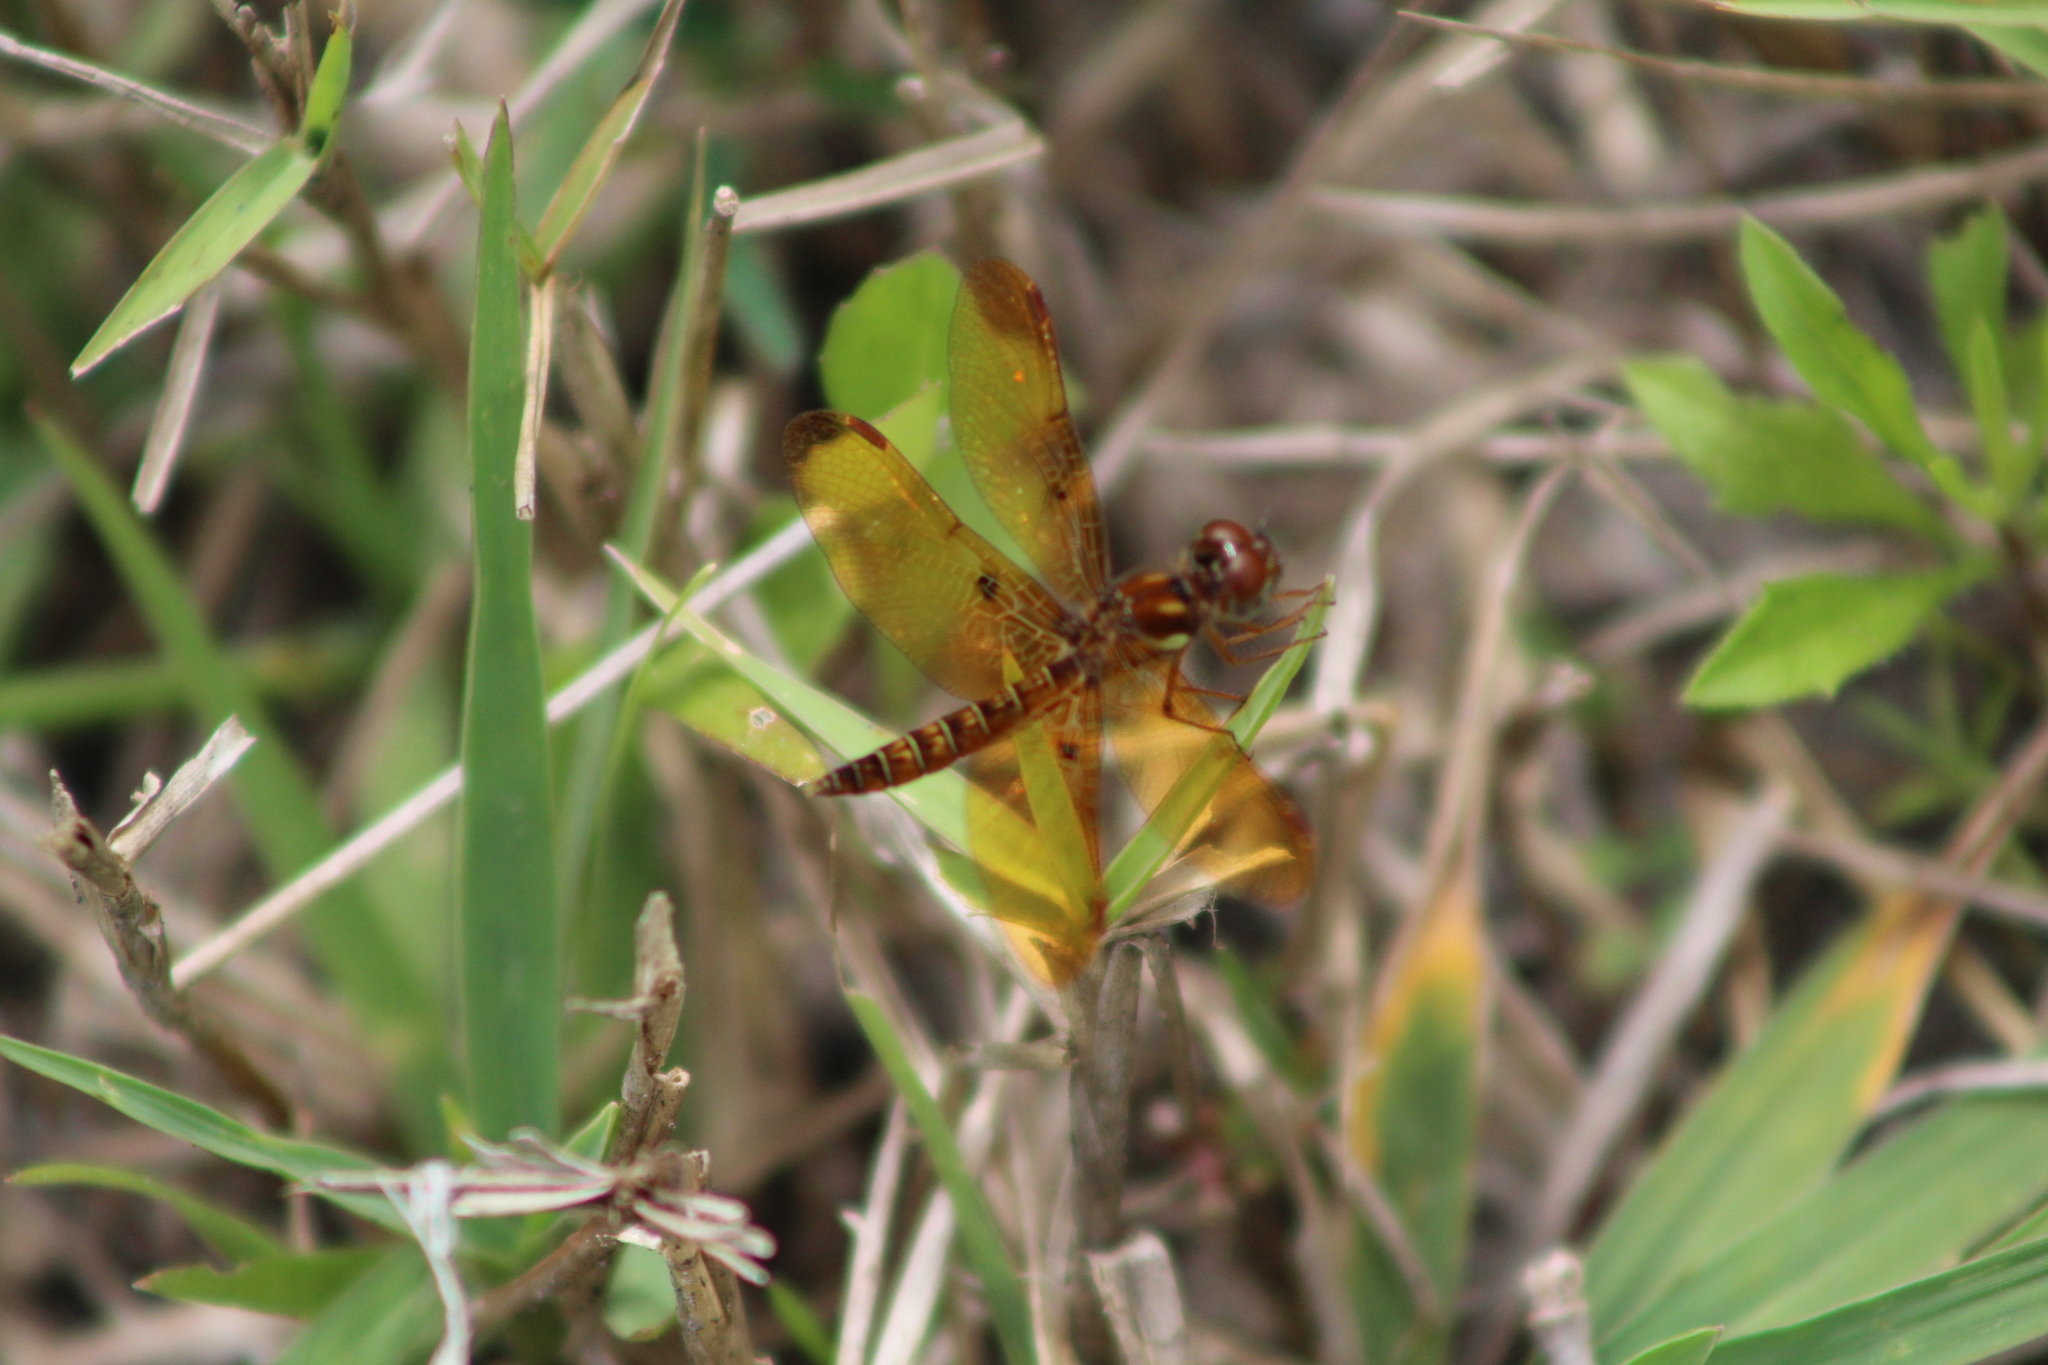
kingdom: Animalia
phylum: Arthropoda
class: Insecta
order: Odonata
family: Libellulidae
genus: Perithemis
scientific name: Perithemis tenera
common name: Eastern amberwing
